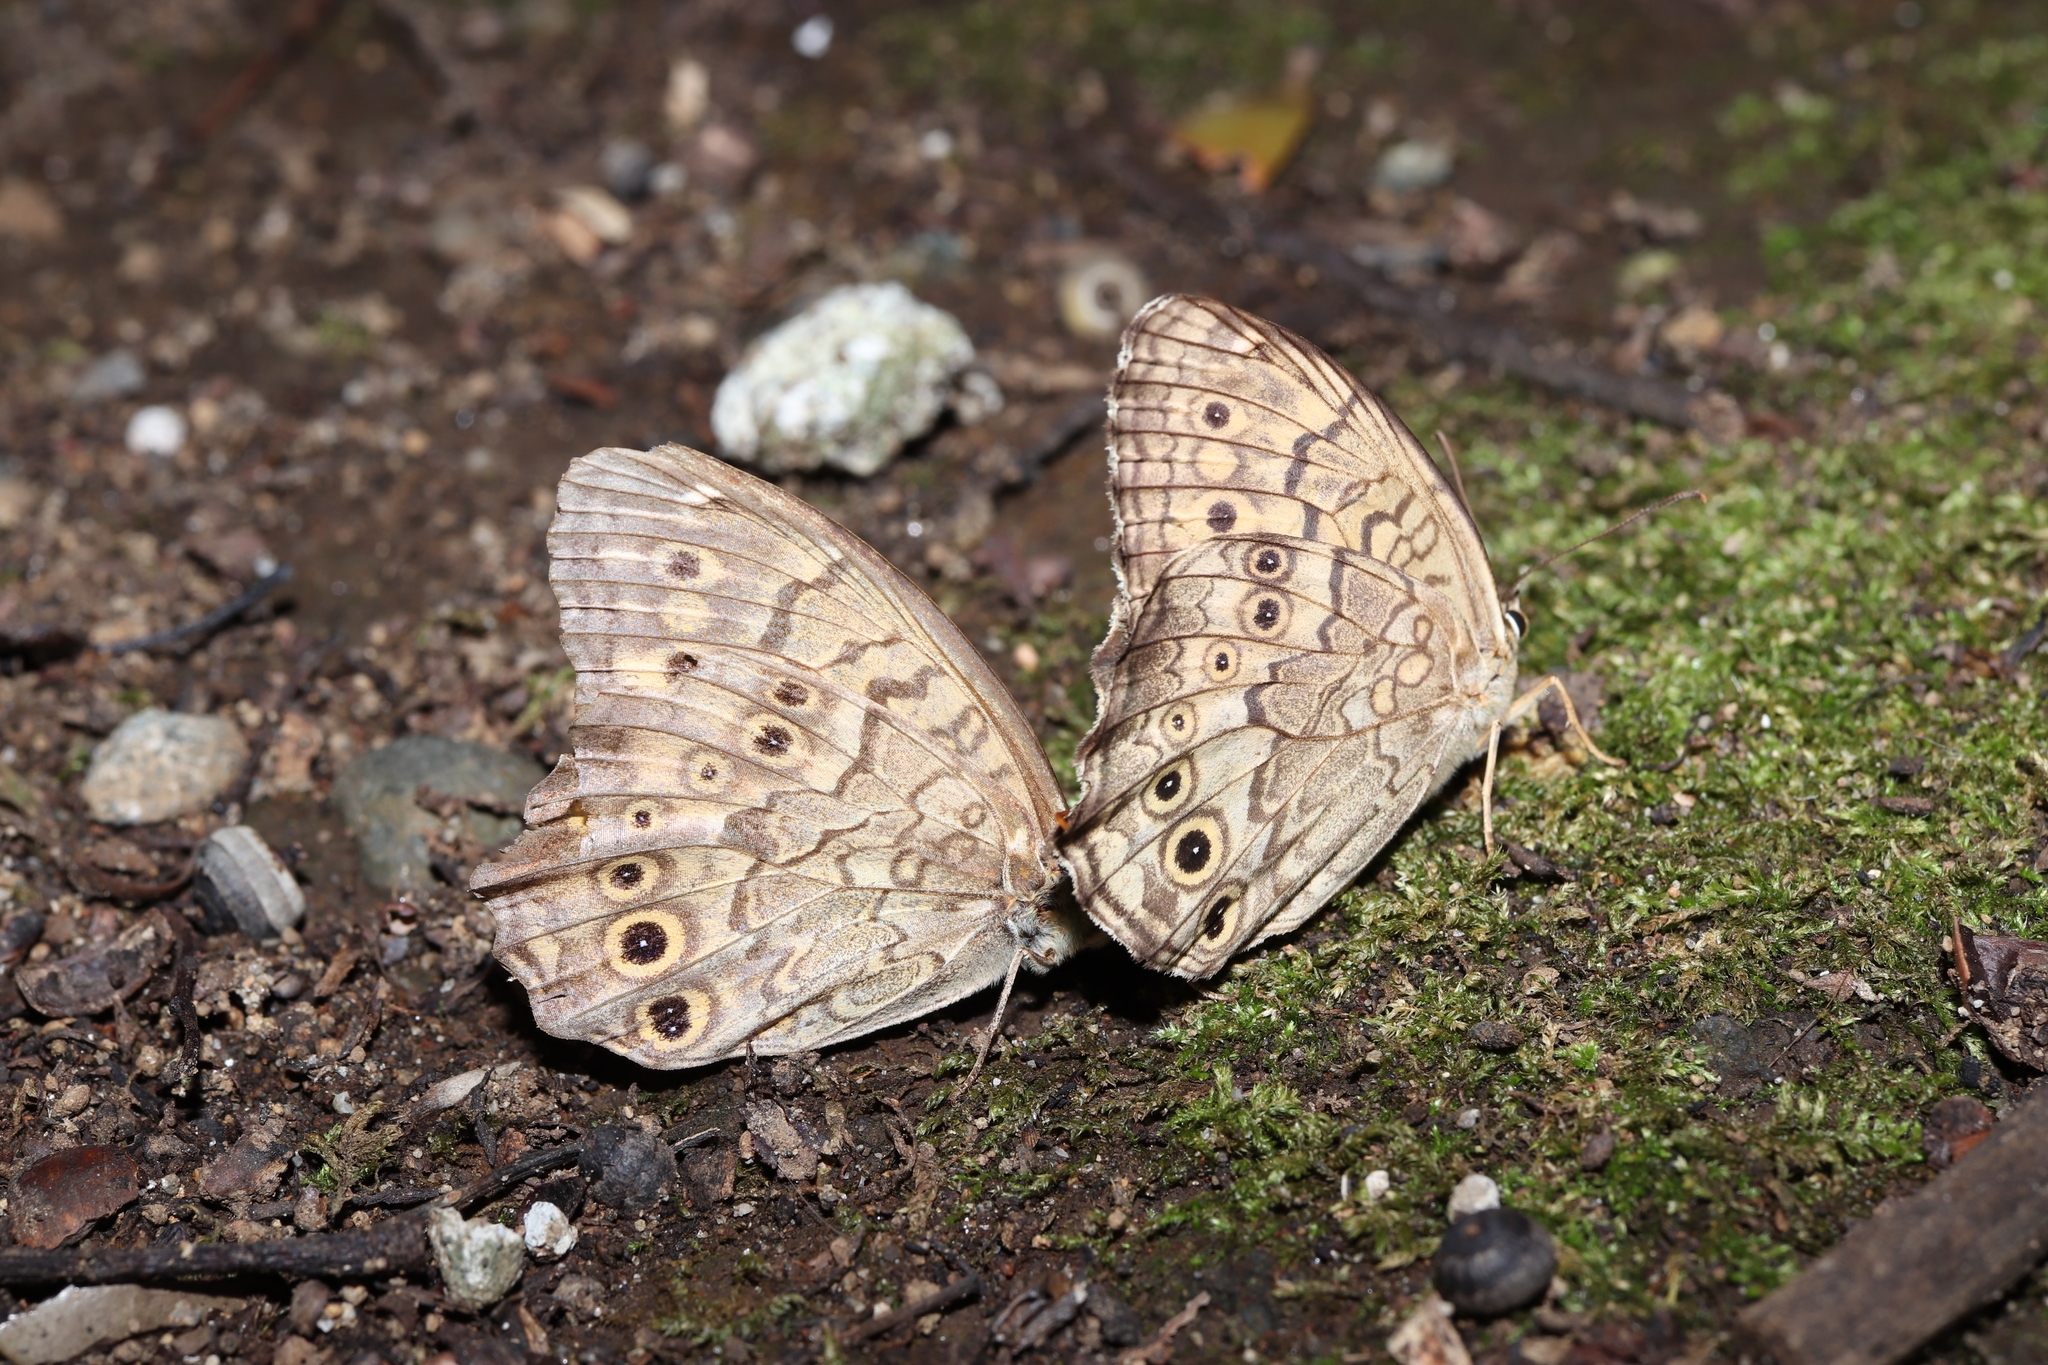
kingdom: Animalia
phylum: Arthropoda
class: Insecta
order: Lepidoptera
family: Nymphalidae
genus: Neope
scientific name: Neope goschkevitschii
